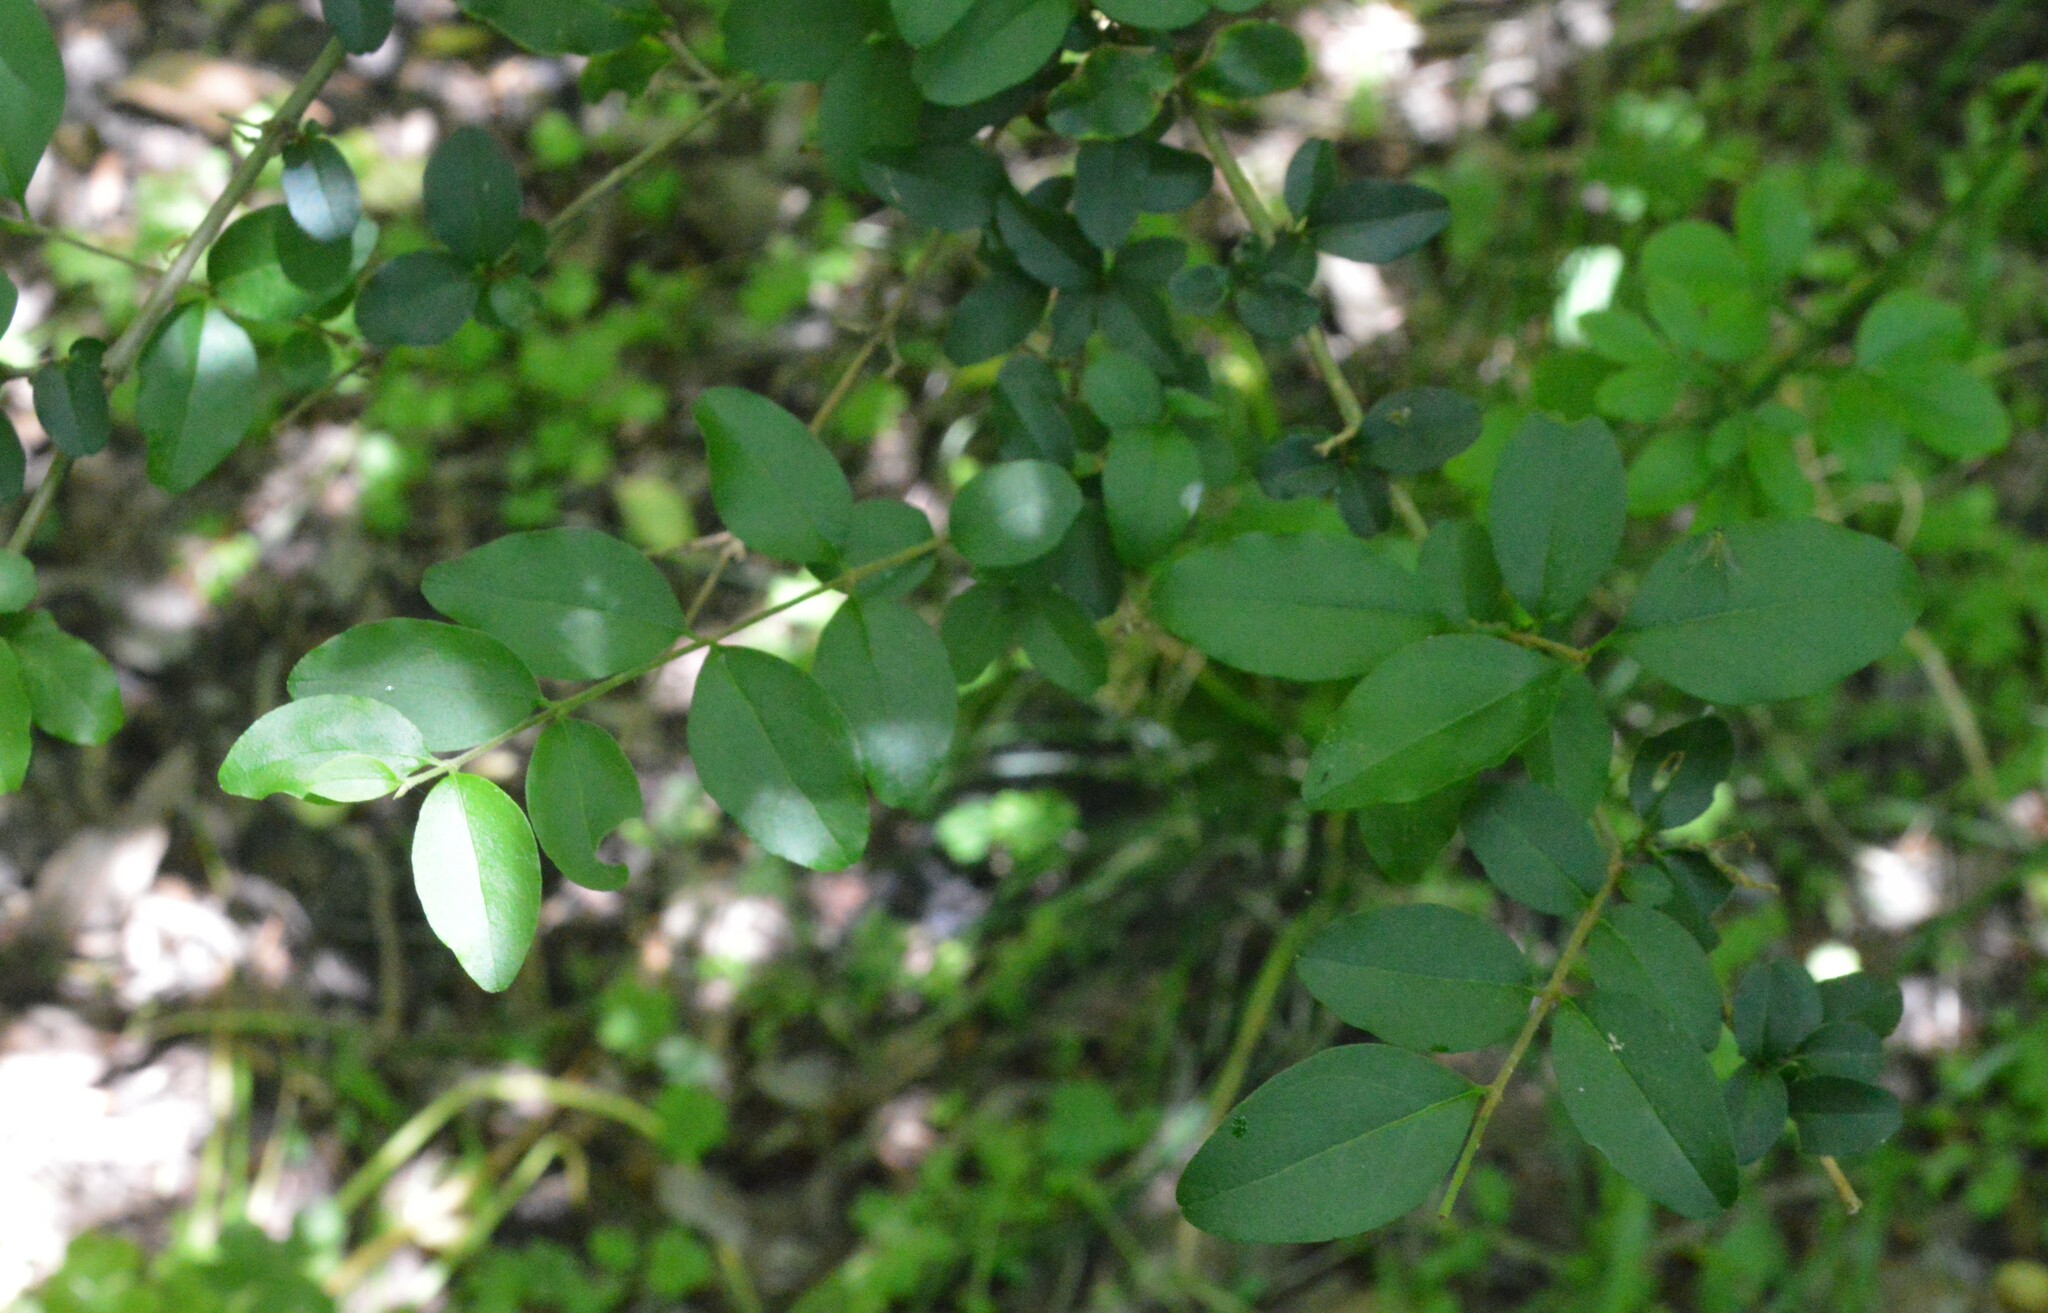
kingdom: Plantae
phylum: Tracheophyta
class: Magnoliopsida
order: Lamiales
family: Oleaceae
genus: Ligustrum
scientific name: Ligustrum sinense
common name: Chinese privet
